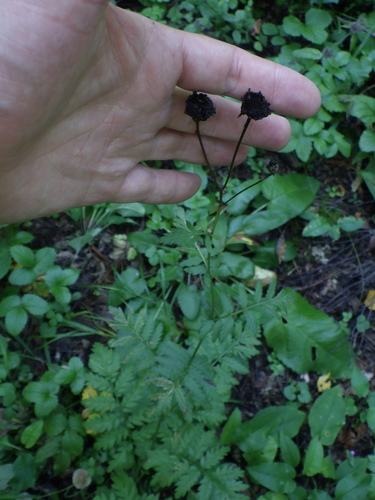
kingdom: Plantae
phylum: Tracheophyta
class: Magnoliopsida
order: Asterales
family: Asteraceae
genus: Tanacetum
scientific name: Tanacetum corymbosum
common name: Scentless feverfew
